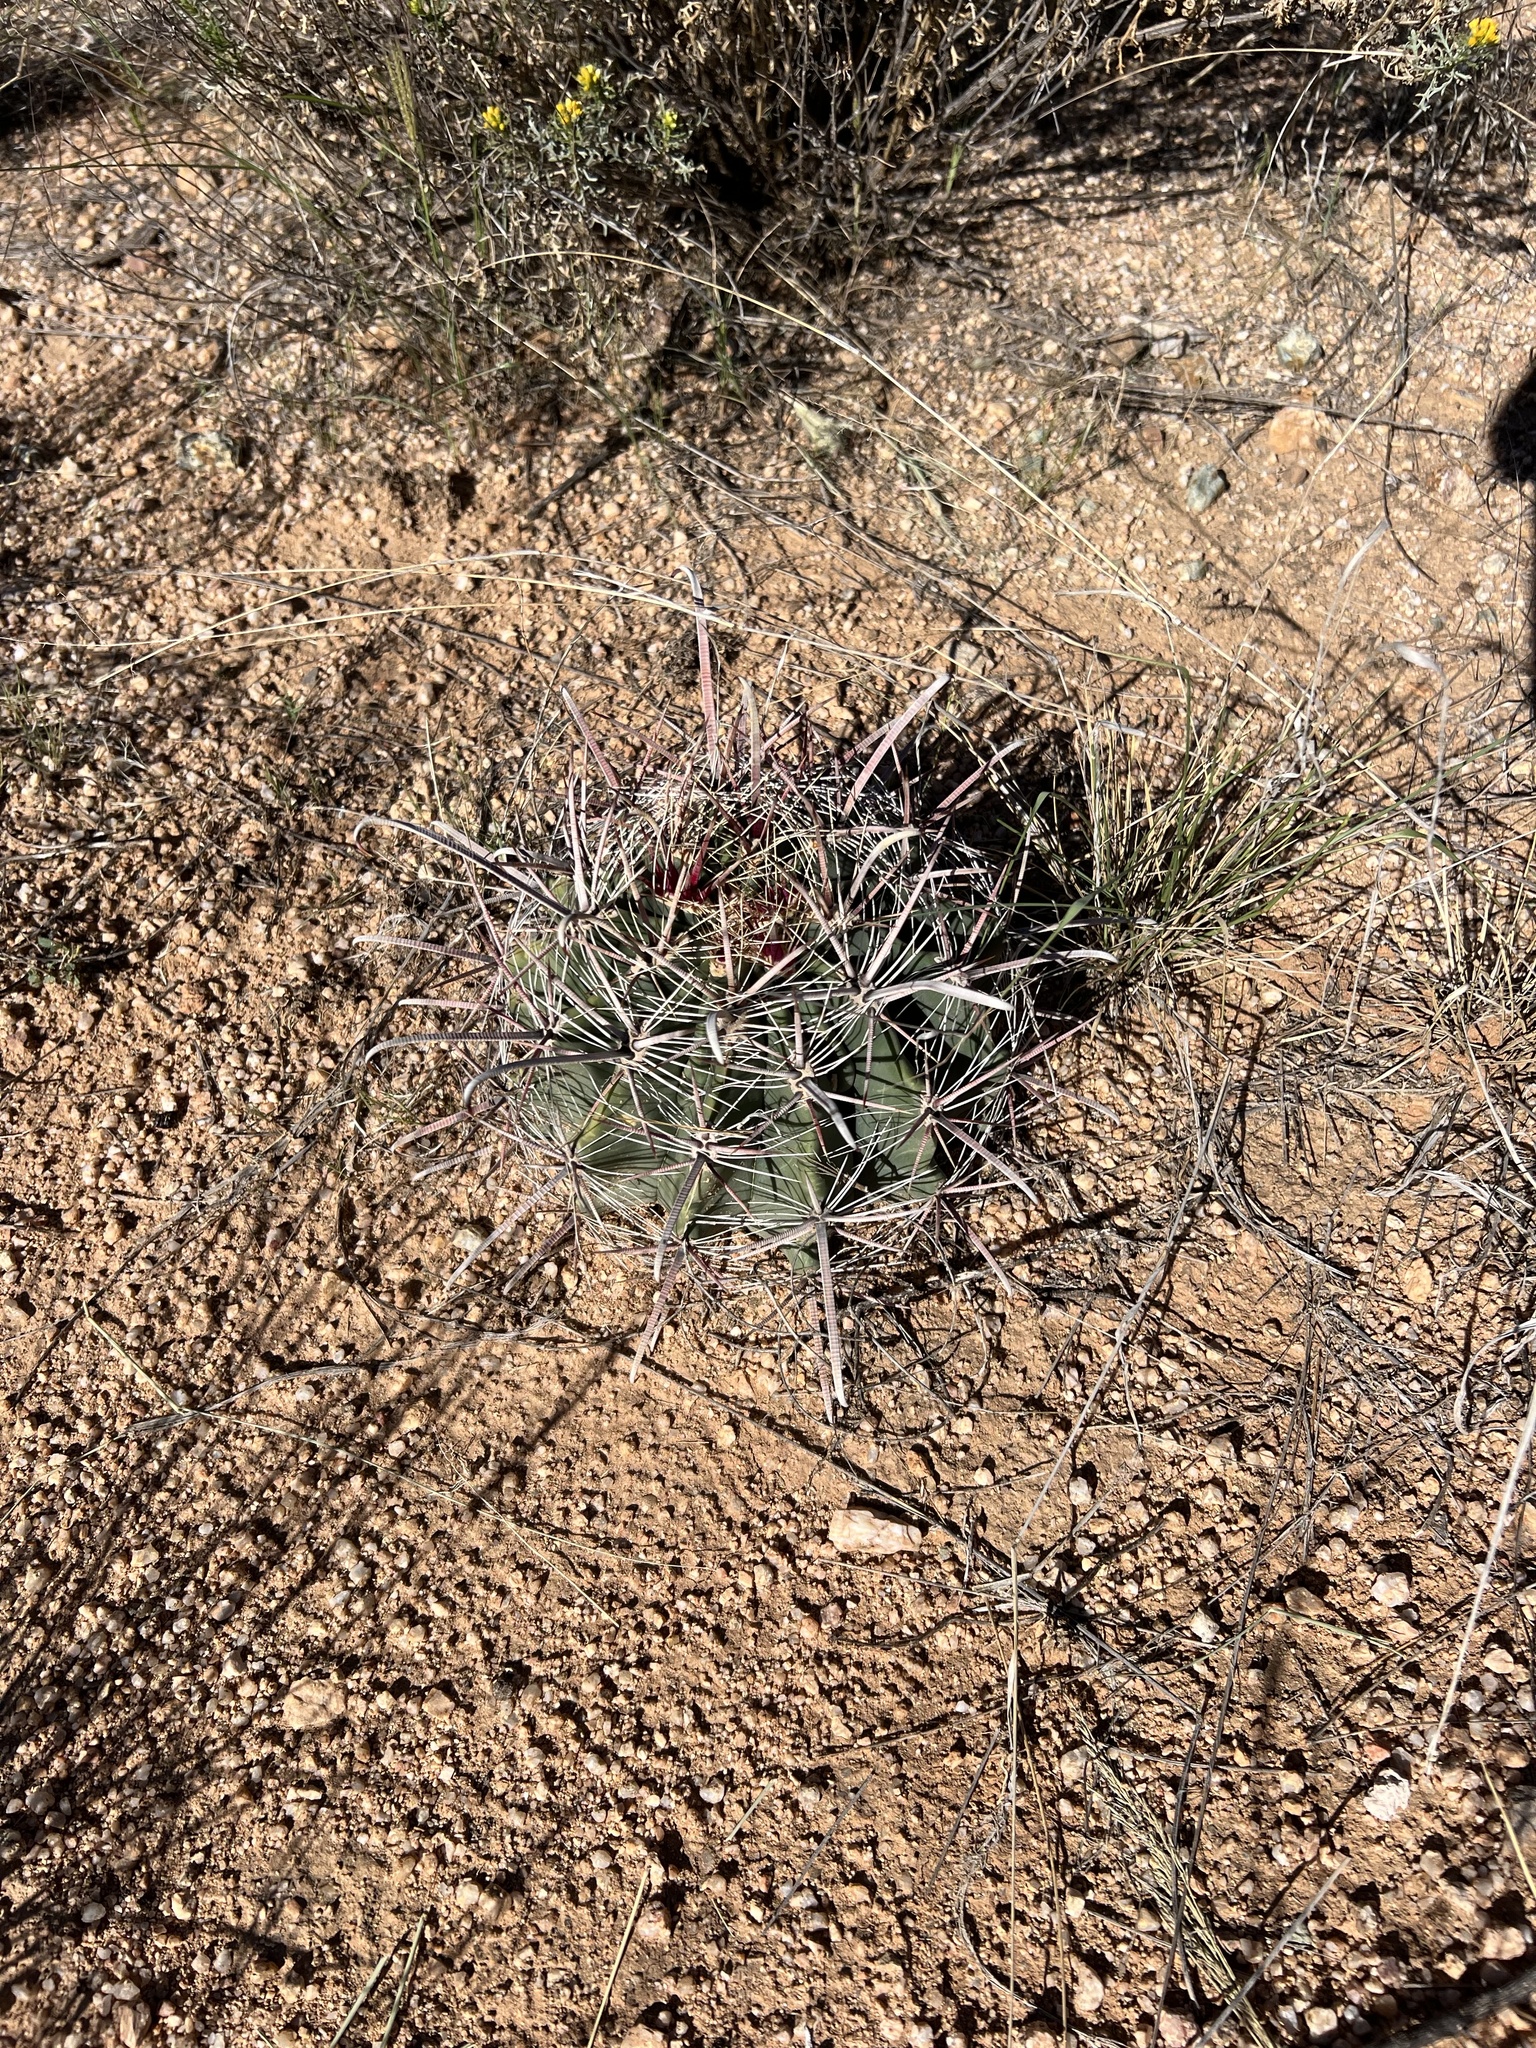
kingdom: Plantae
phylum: Tracheophyta
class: Magnoliopsida
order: Caryophyllales
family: Cactaceae
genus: Ferocactus
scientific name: Ferocactus wislizeni
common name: Candy barrel cactus
